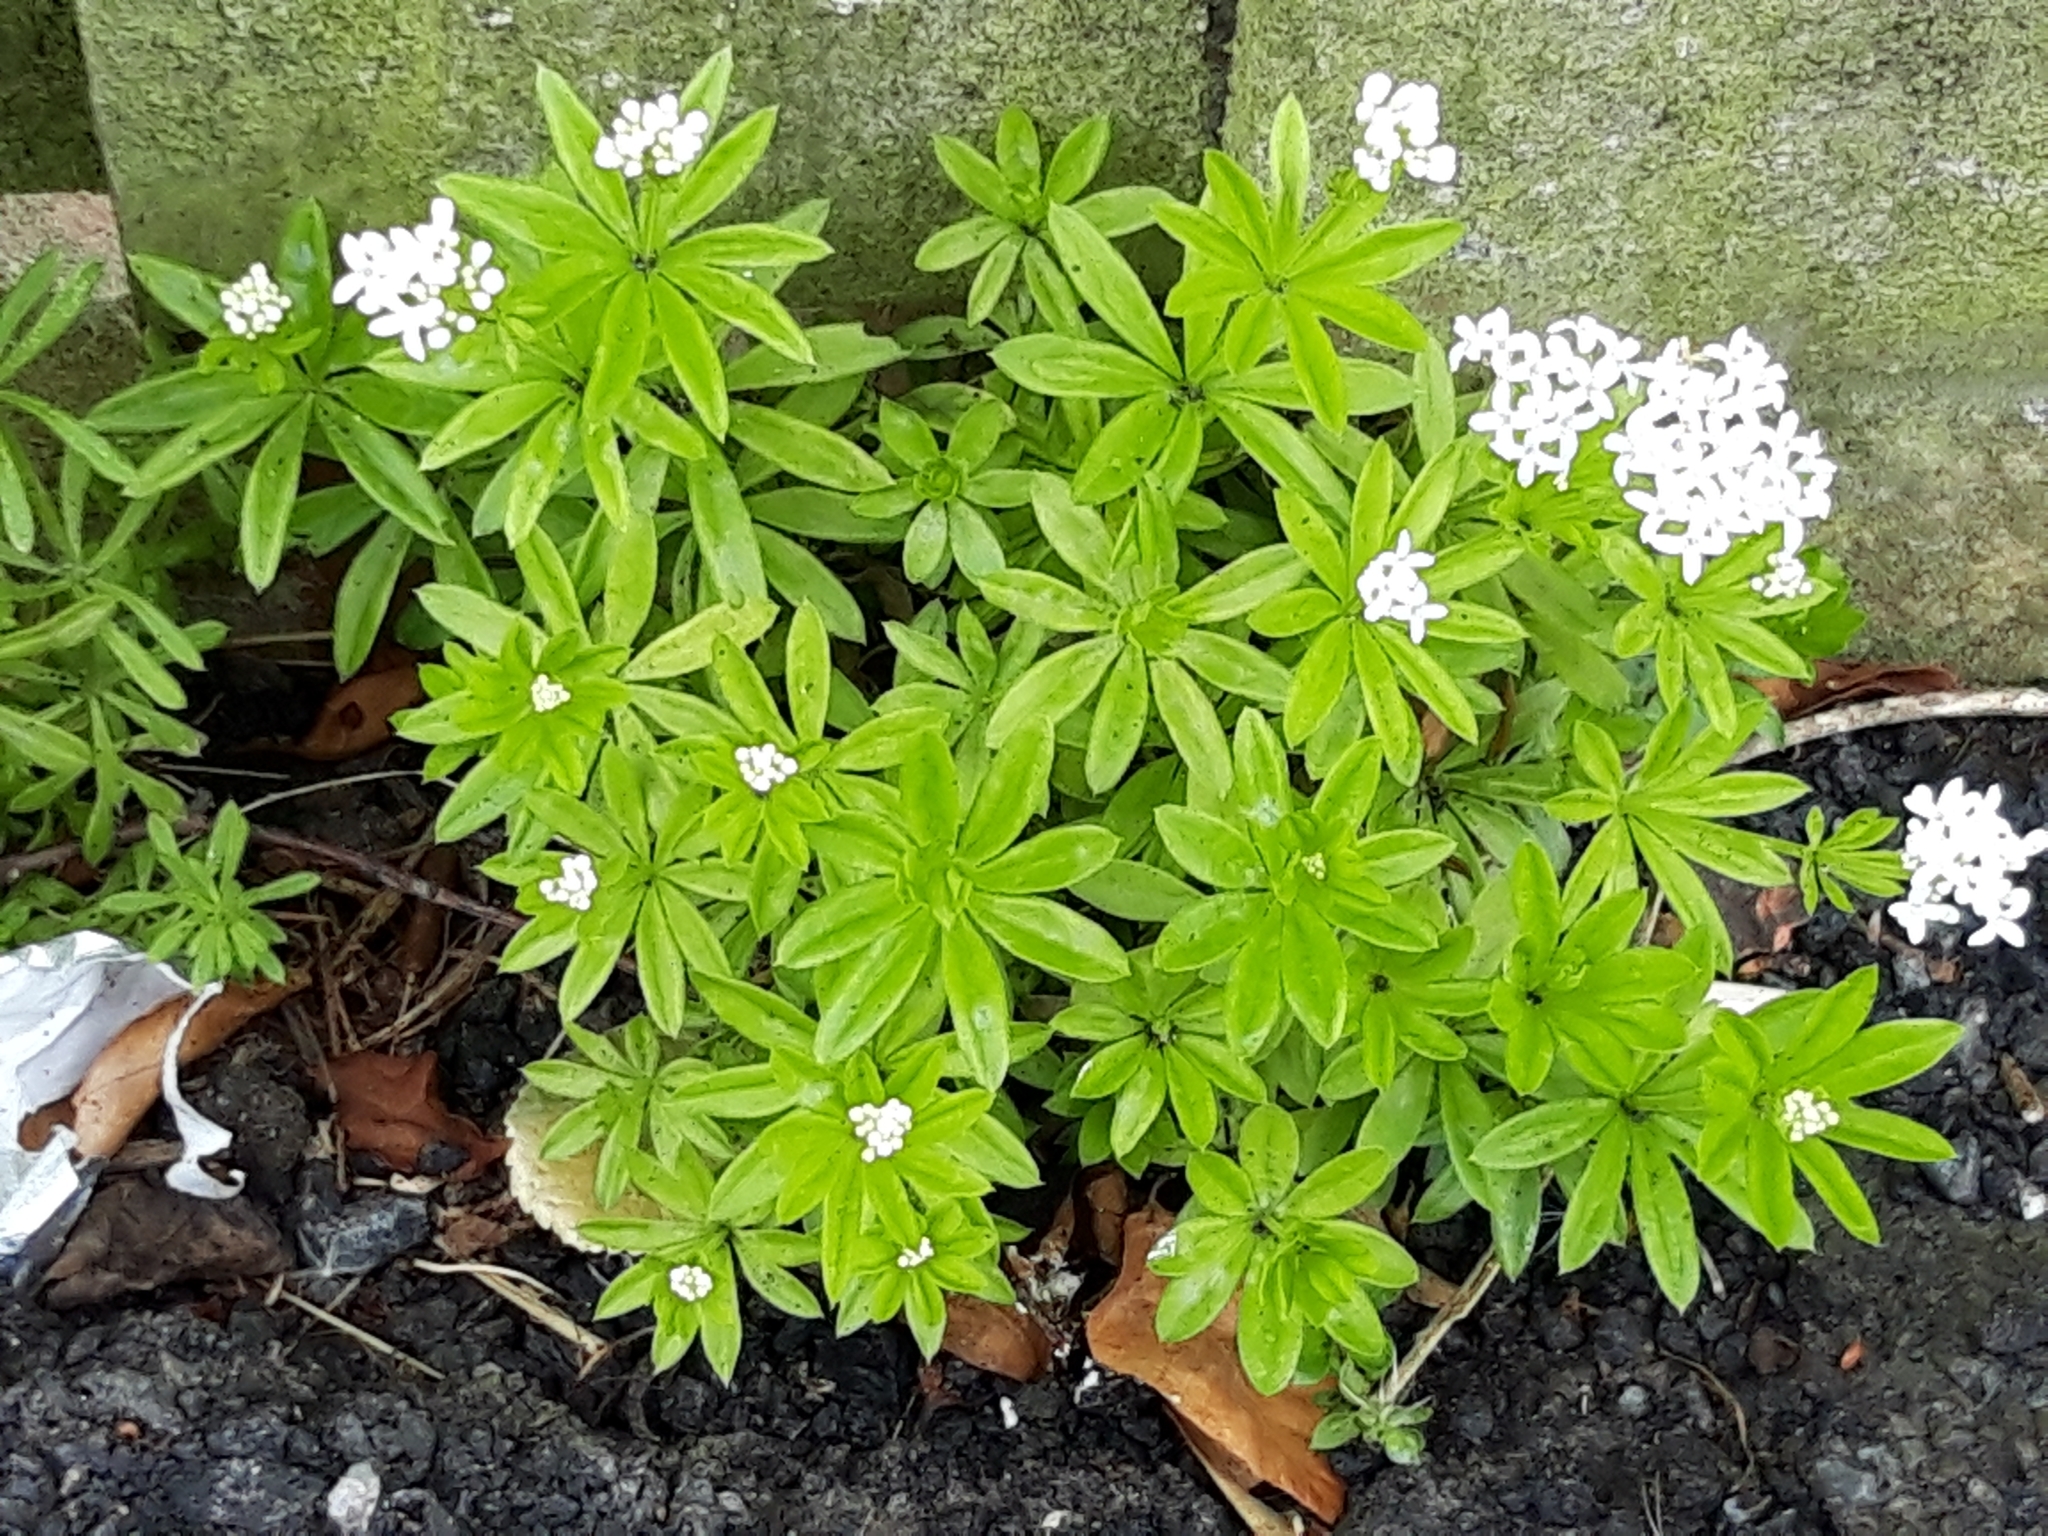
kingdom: Plantae
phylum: Tracheophyta
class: Magnoliopsida
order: Gentianales
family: Rubiaceae
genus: Galium
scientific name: Galium odoratum
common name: Sweet woodruff
